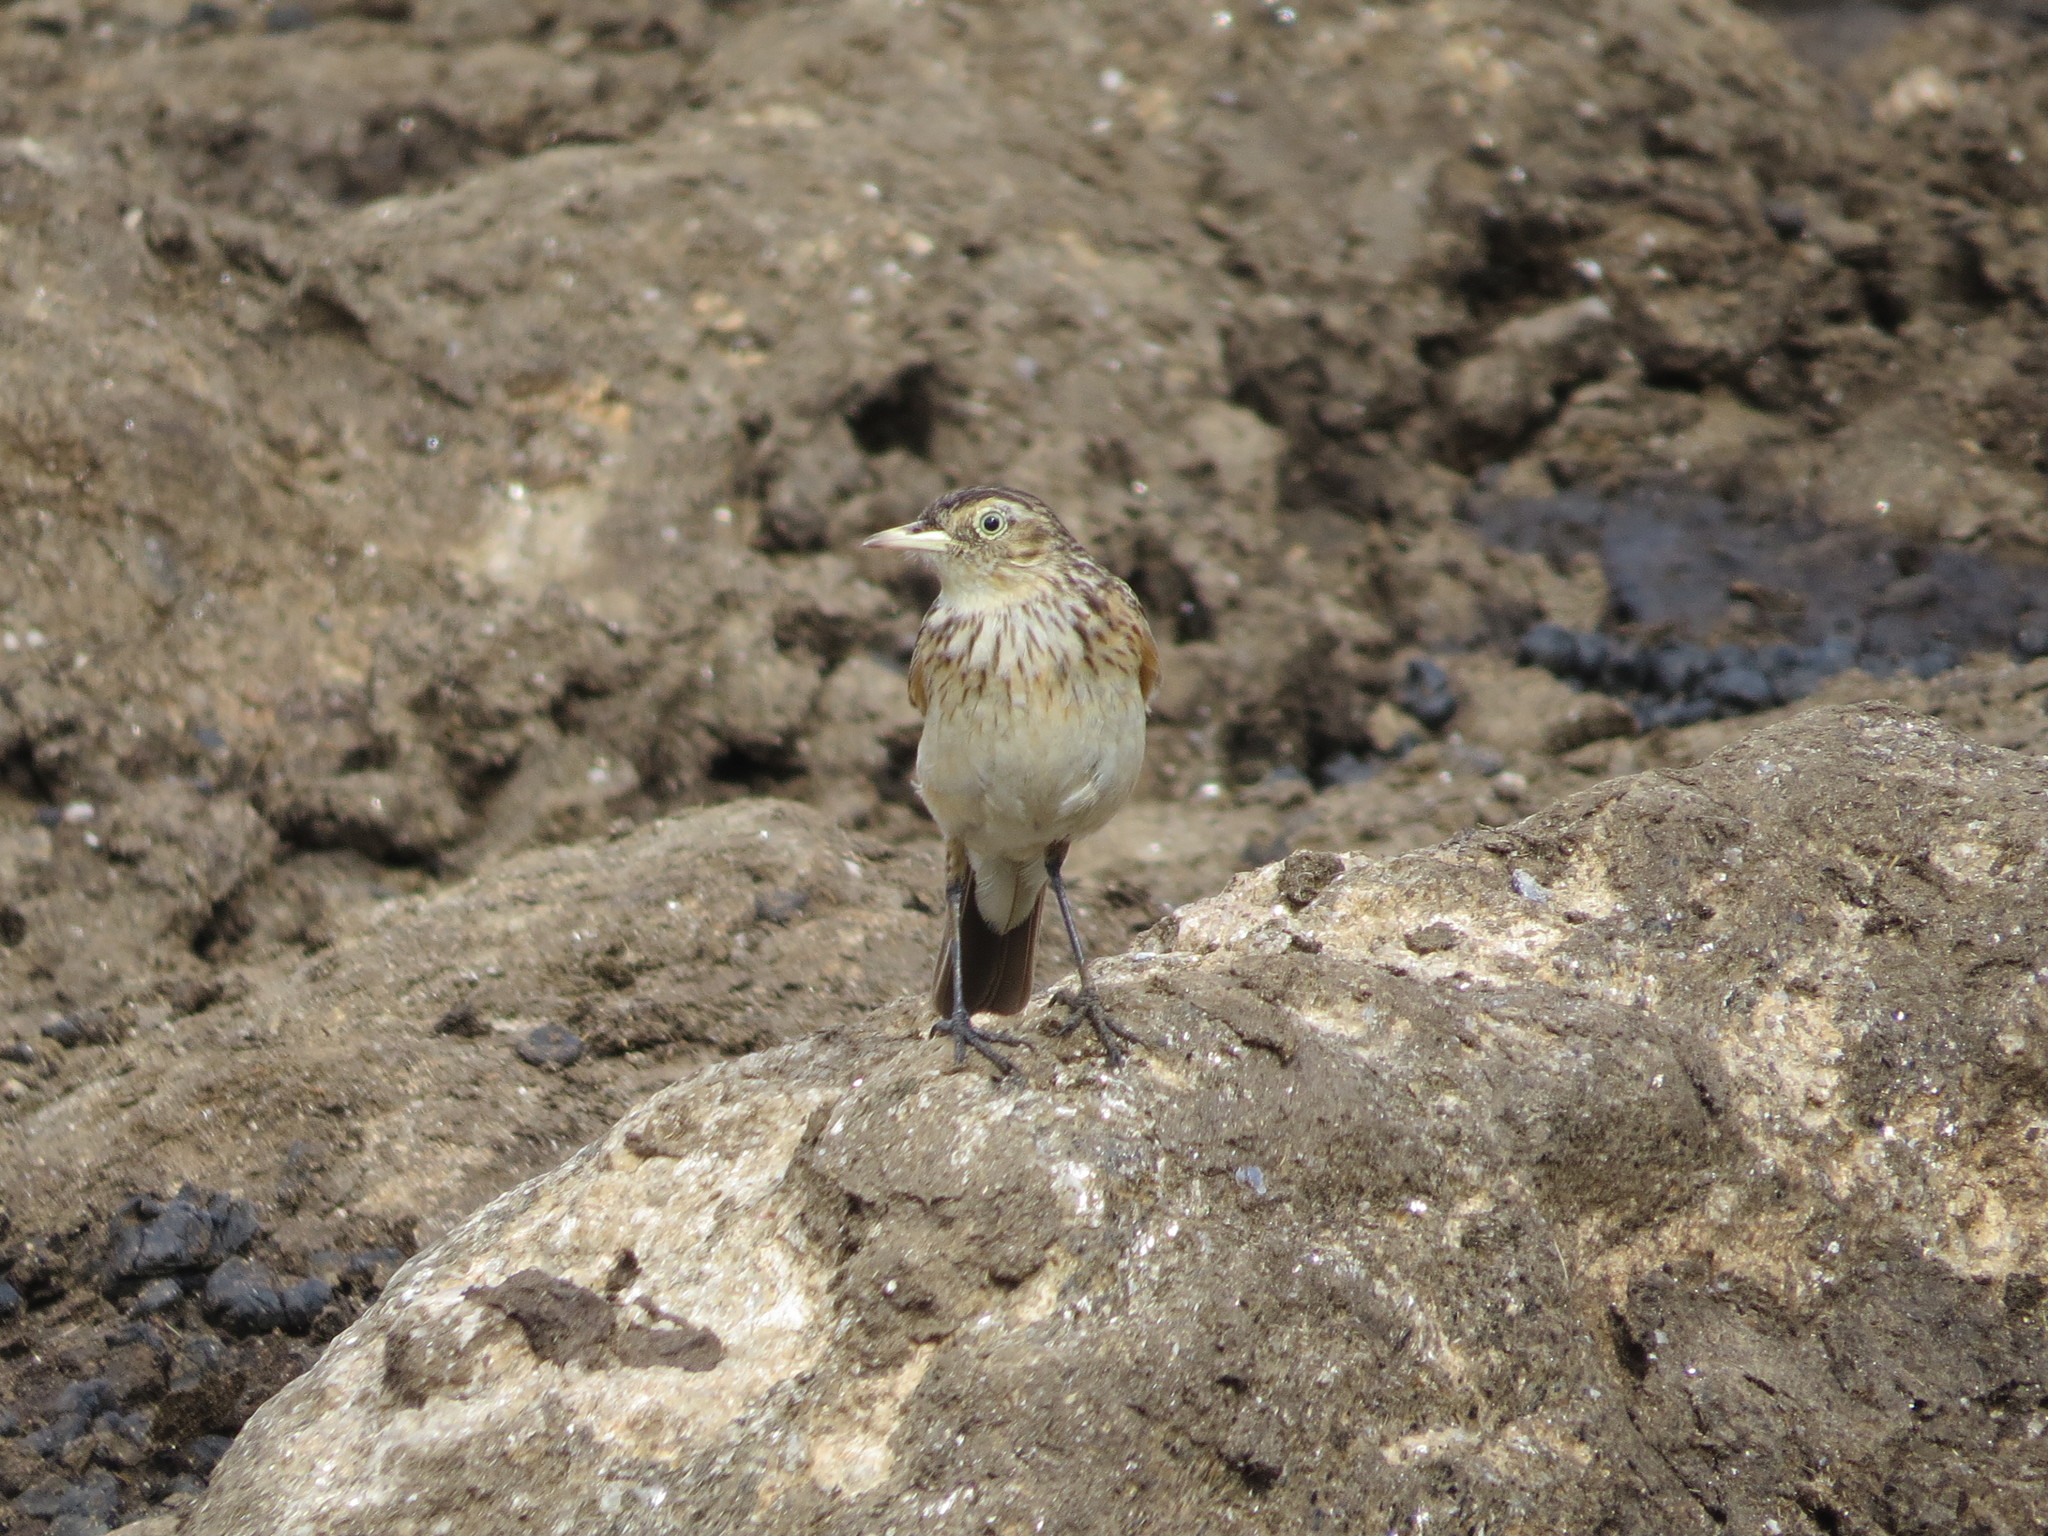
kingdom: Animalia
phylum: Chordata
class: Aves
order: Passeriformes
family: Tyrannidae
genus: Hymenops
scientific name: Hymenops perspicillatus
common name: Spectacled tyrant
